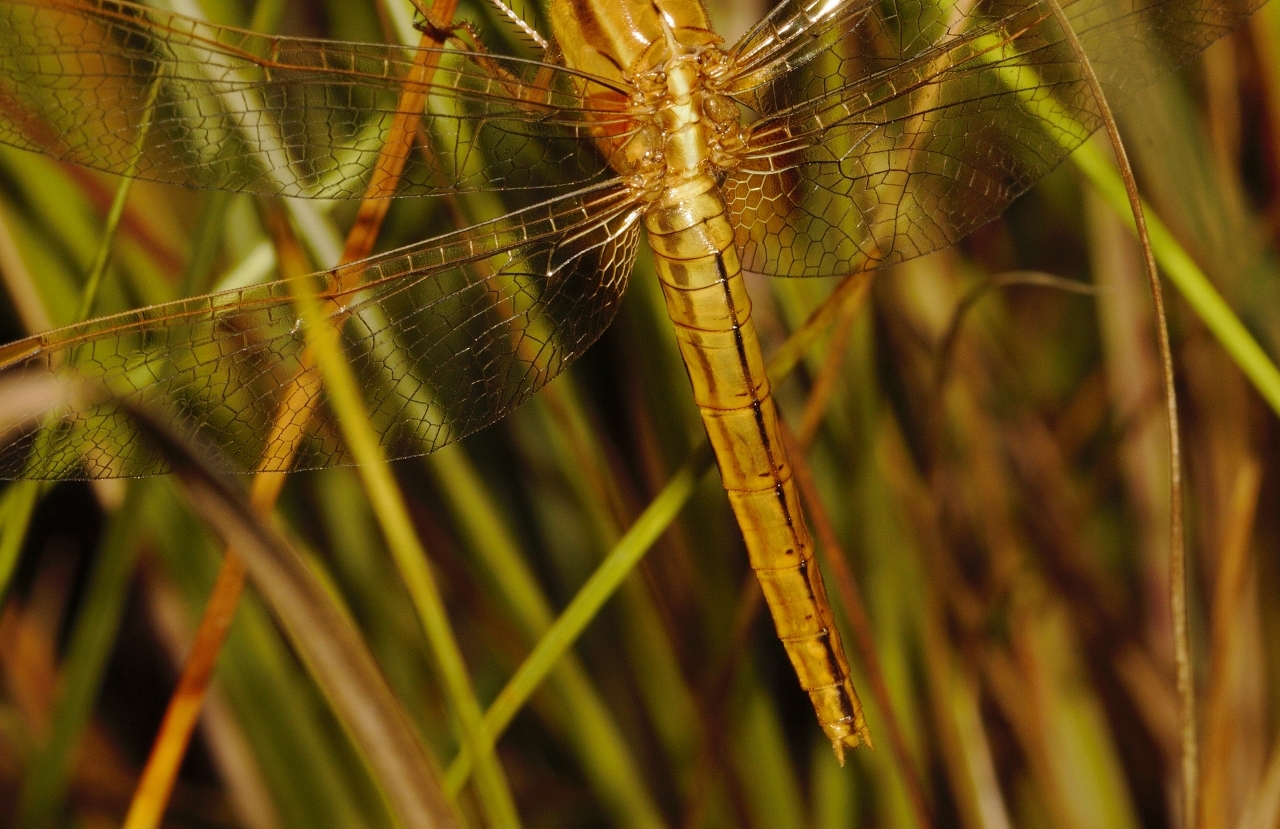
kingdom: Animalia
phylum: Arthropoda
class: Insecta
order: Odonata
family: Libellulidae
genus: Crocothemis
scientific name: Crocothemis erythraea
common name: Scarlet dragonfly
